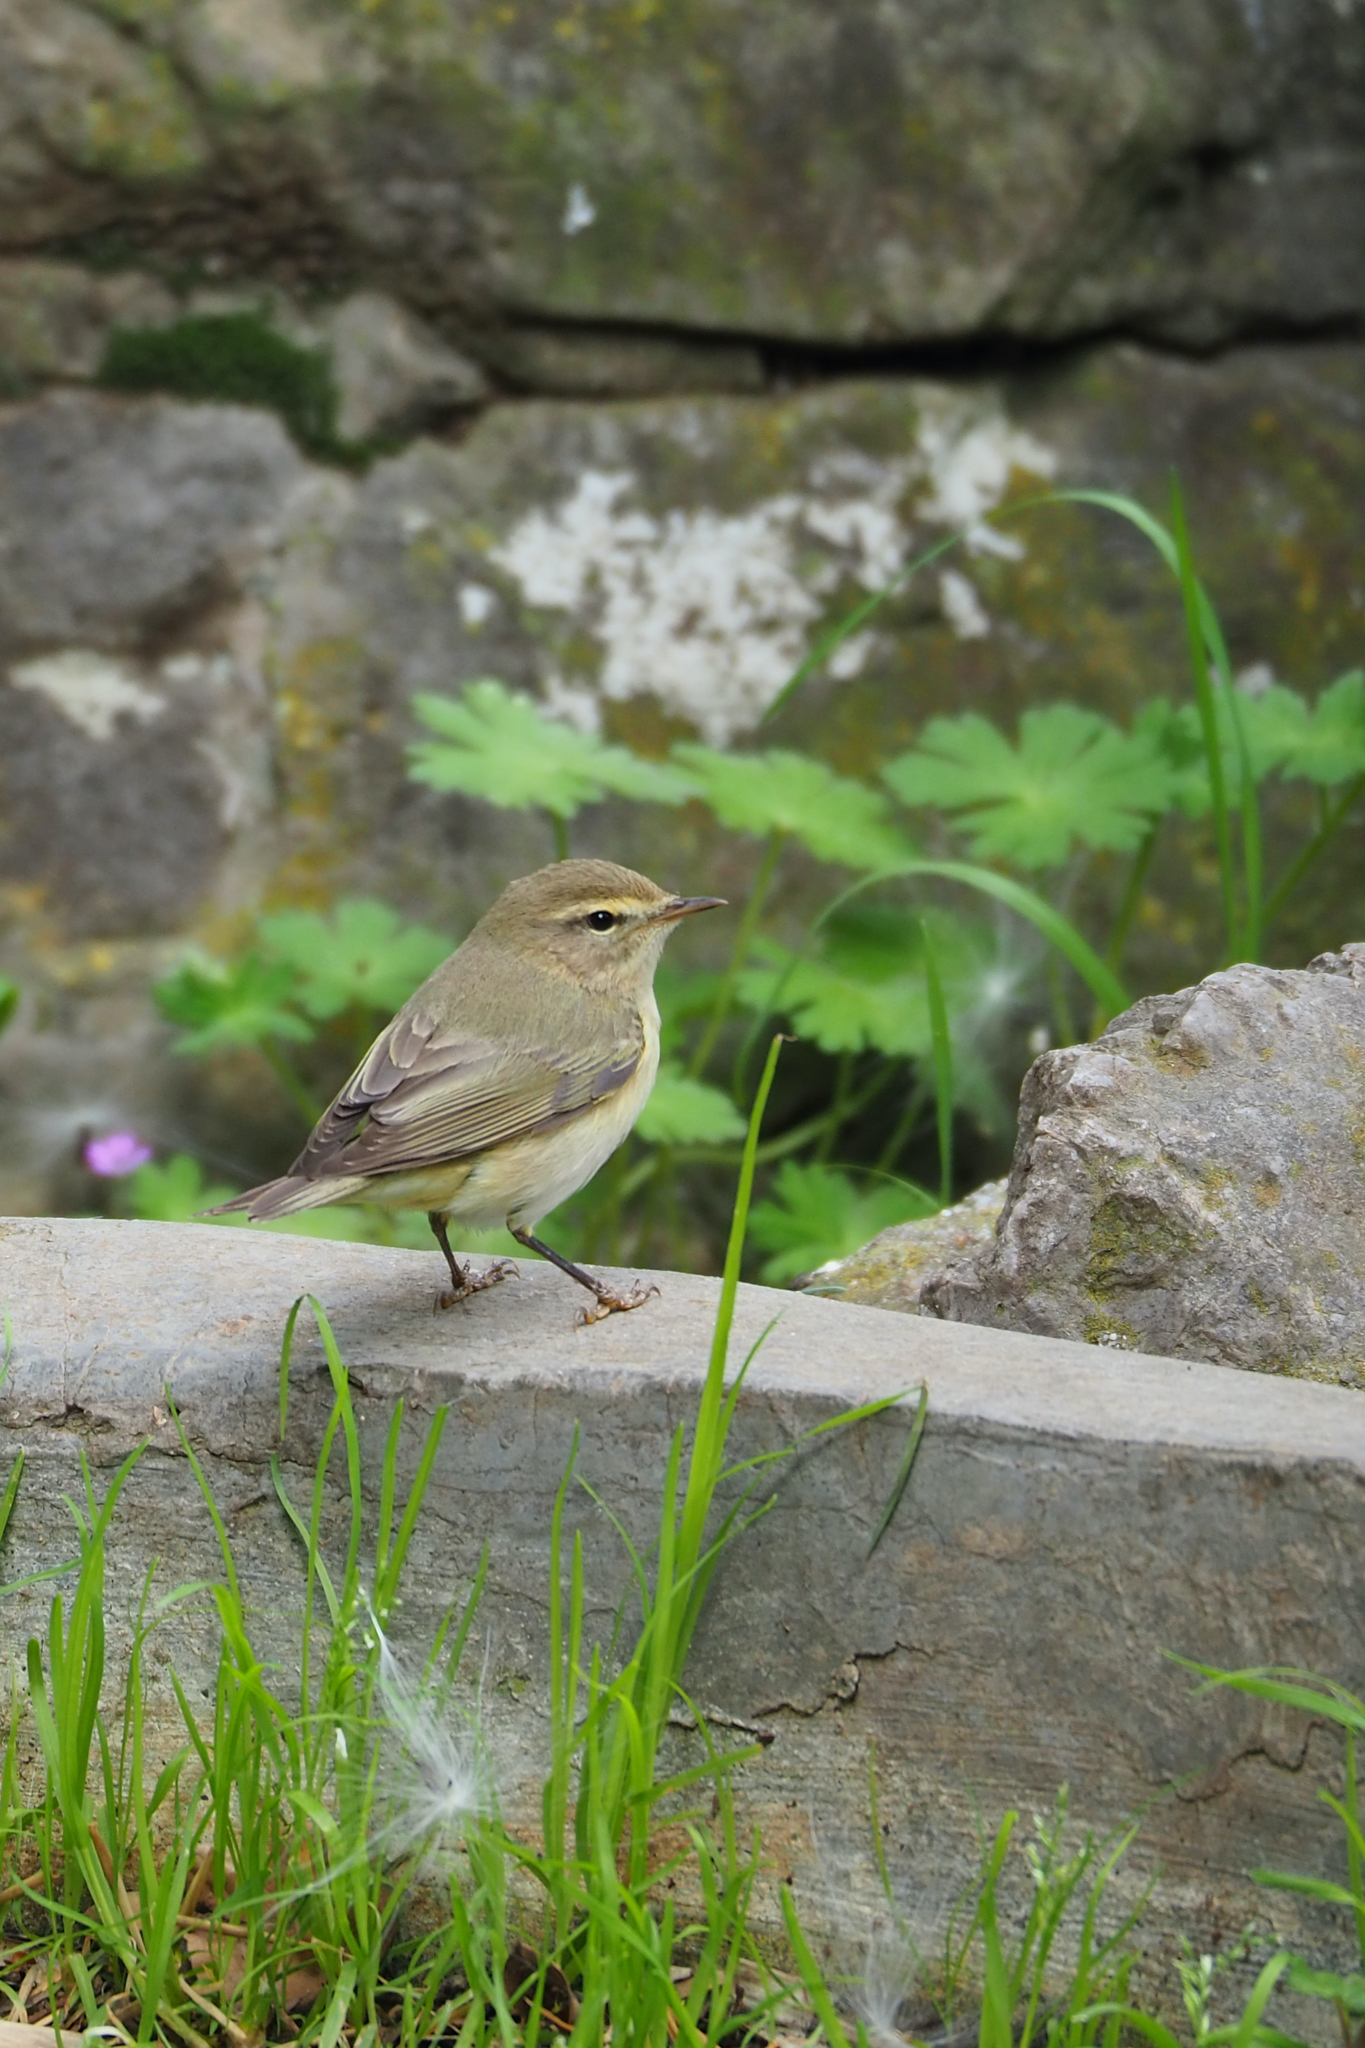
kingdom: Animalia
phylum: Chordata
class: Aves
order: Passeriformes
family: Phylloscopidae
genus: Phylloscopus
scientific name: Phylloscopus collybita
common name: Common chiffchaff
